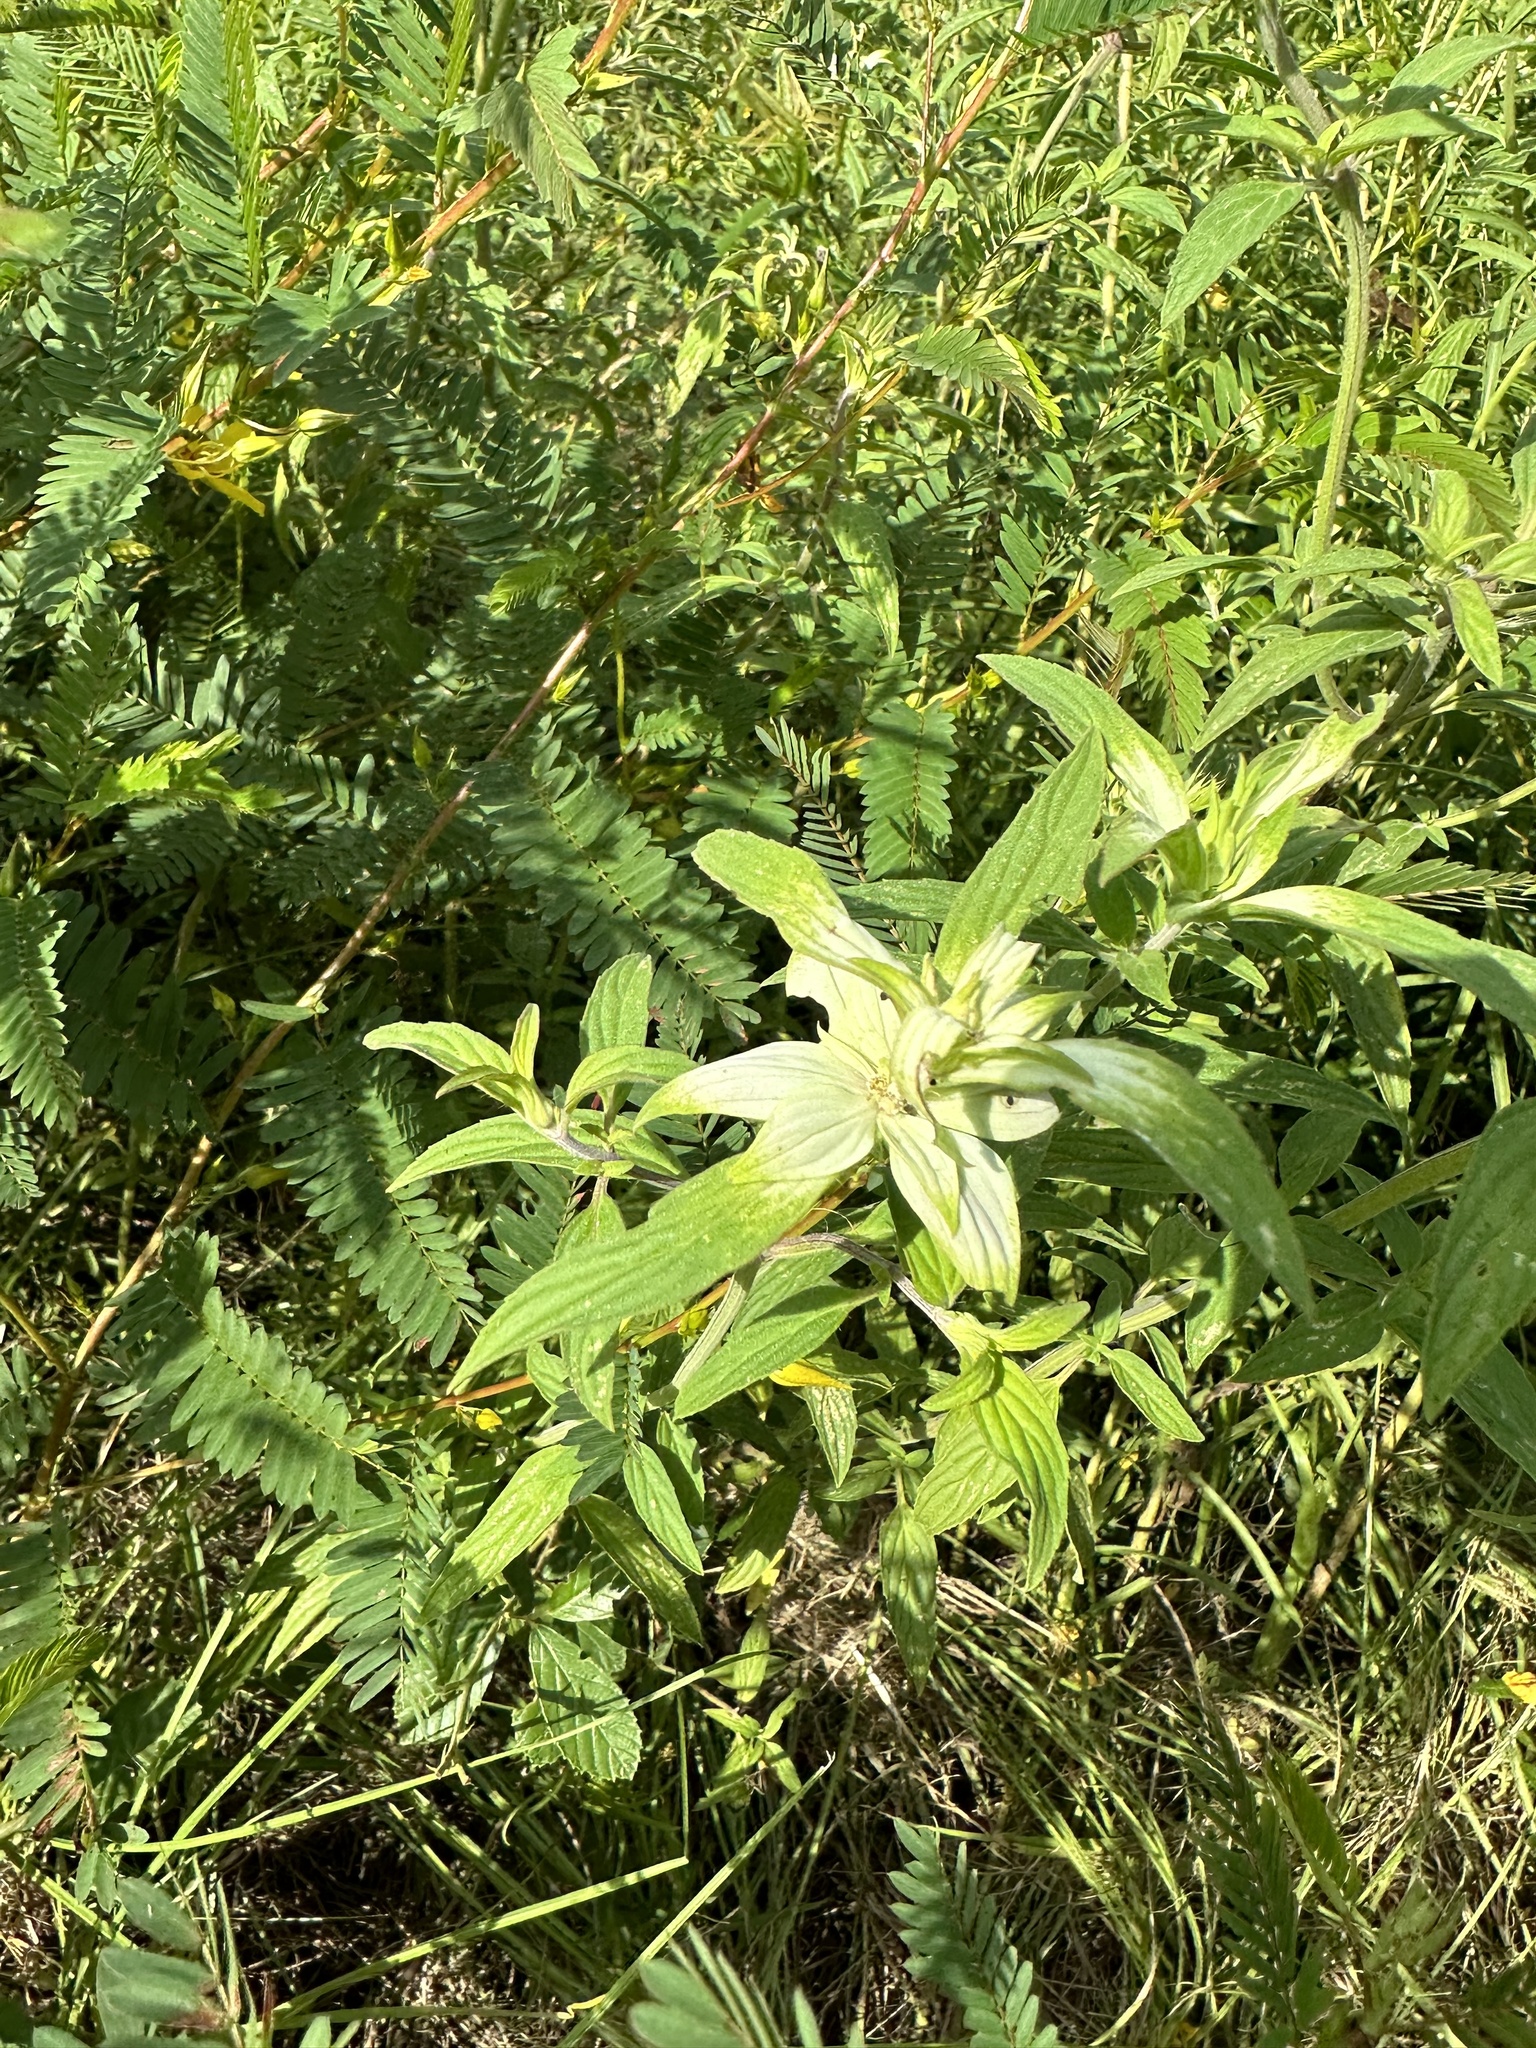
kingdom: Plantae
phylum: Tracheophyta
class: Magnoliopsida
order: Lamiales
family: Lamiaceae
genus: Monarda
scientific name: Monarda punctata
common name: Dotted monarda
